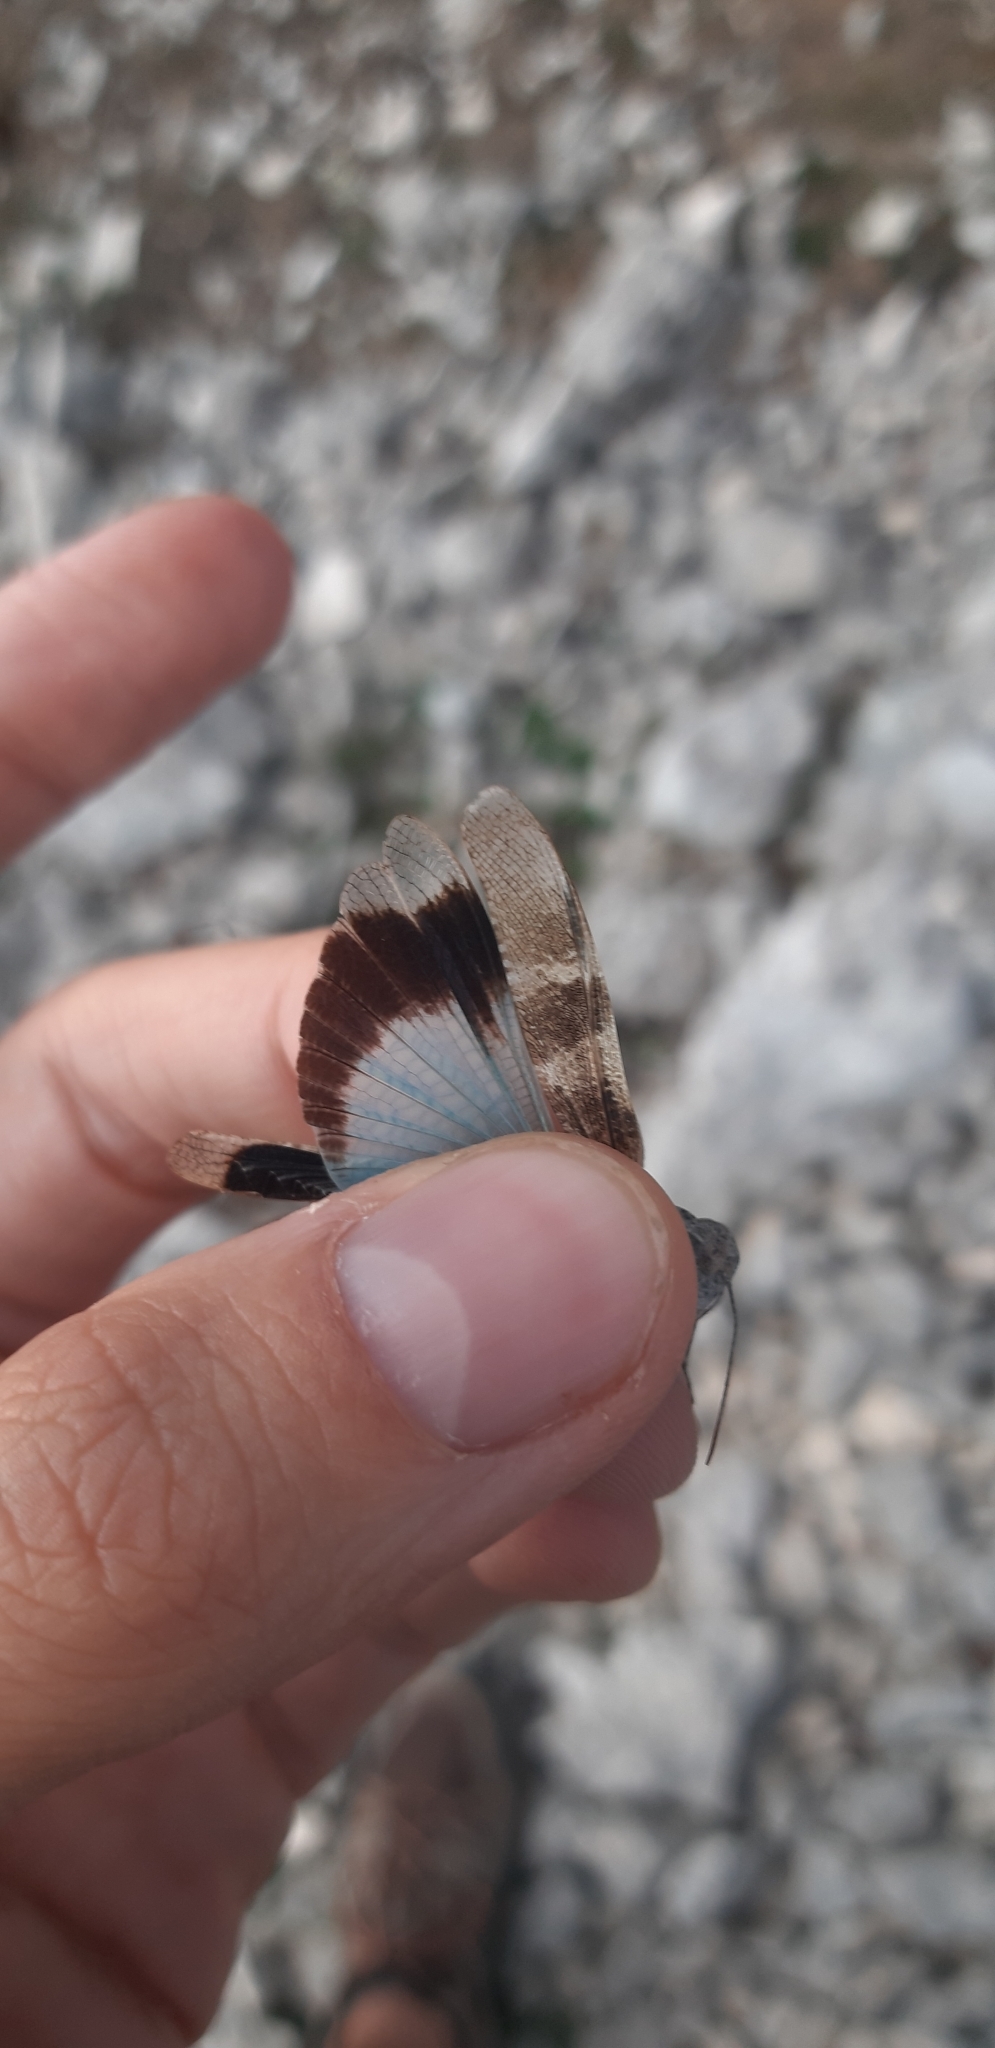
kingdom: Animalia
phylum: Arthropoda
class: Insecta
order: Orthoptera
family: Acrididae
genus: Oedipoda
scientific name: Oedipoda coerulea
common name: Iberian band-winged grasshopper
